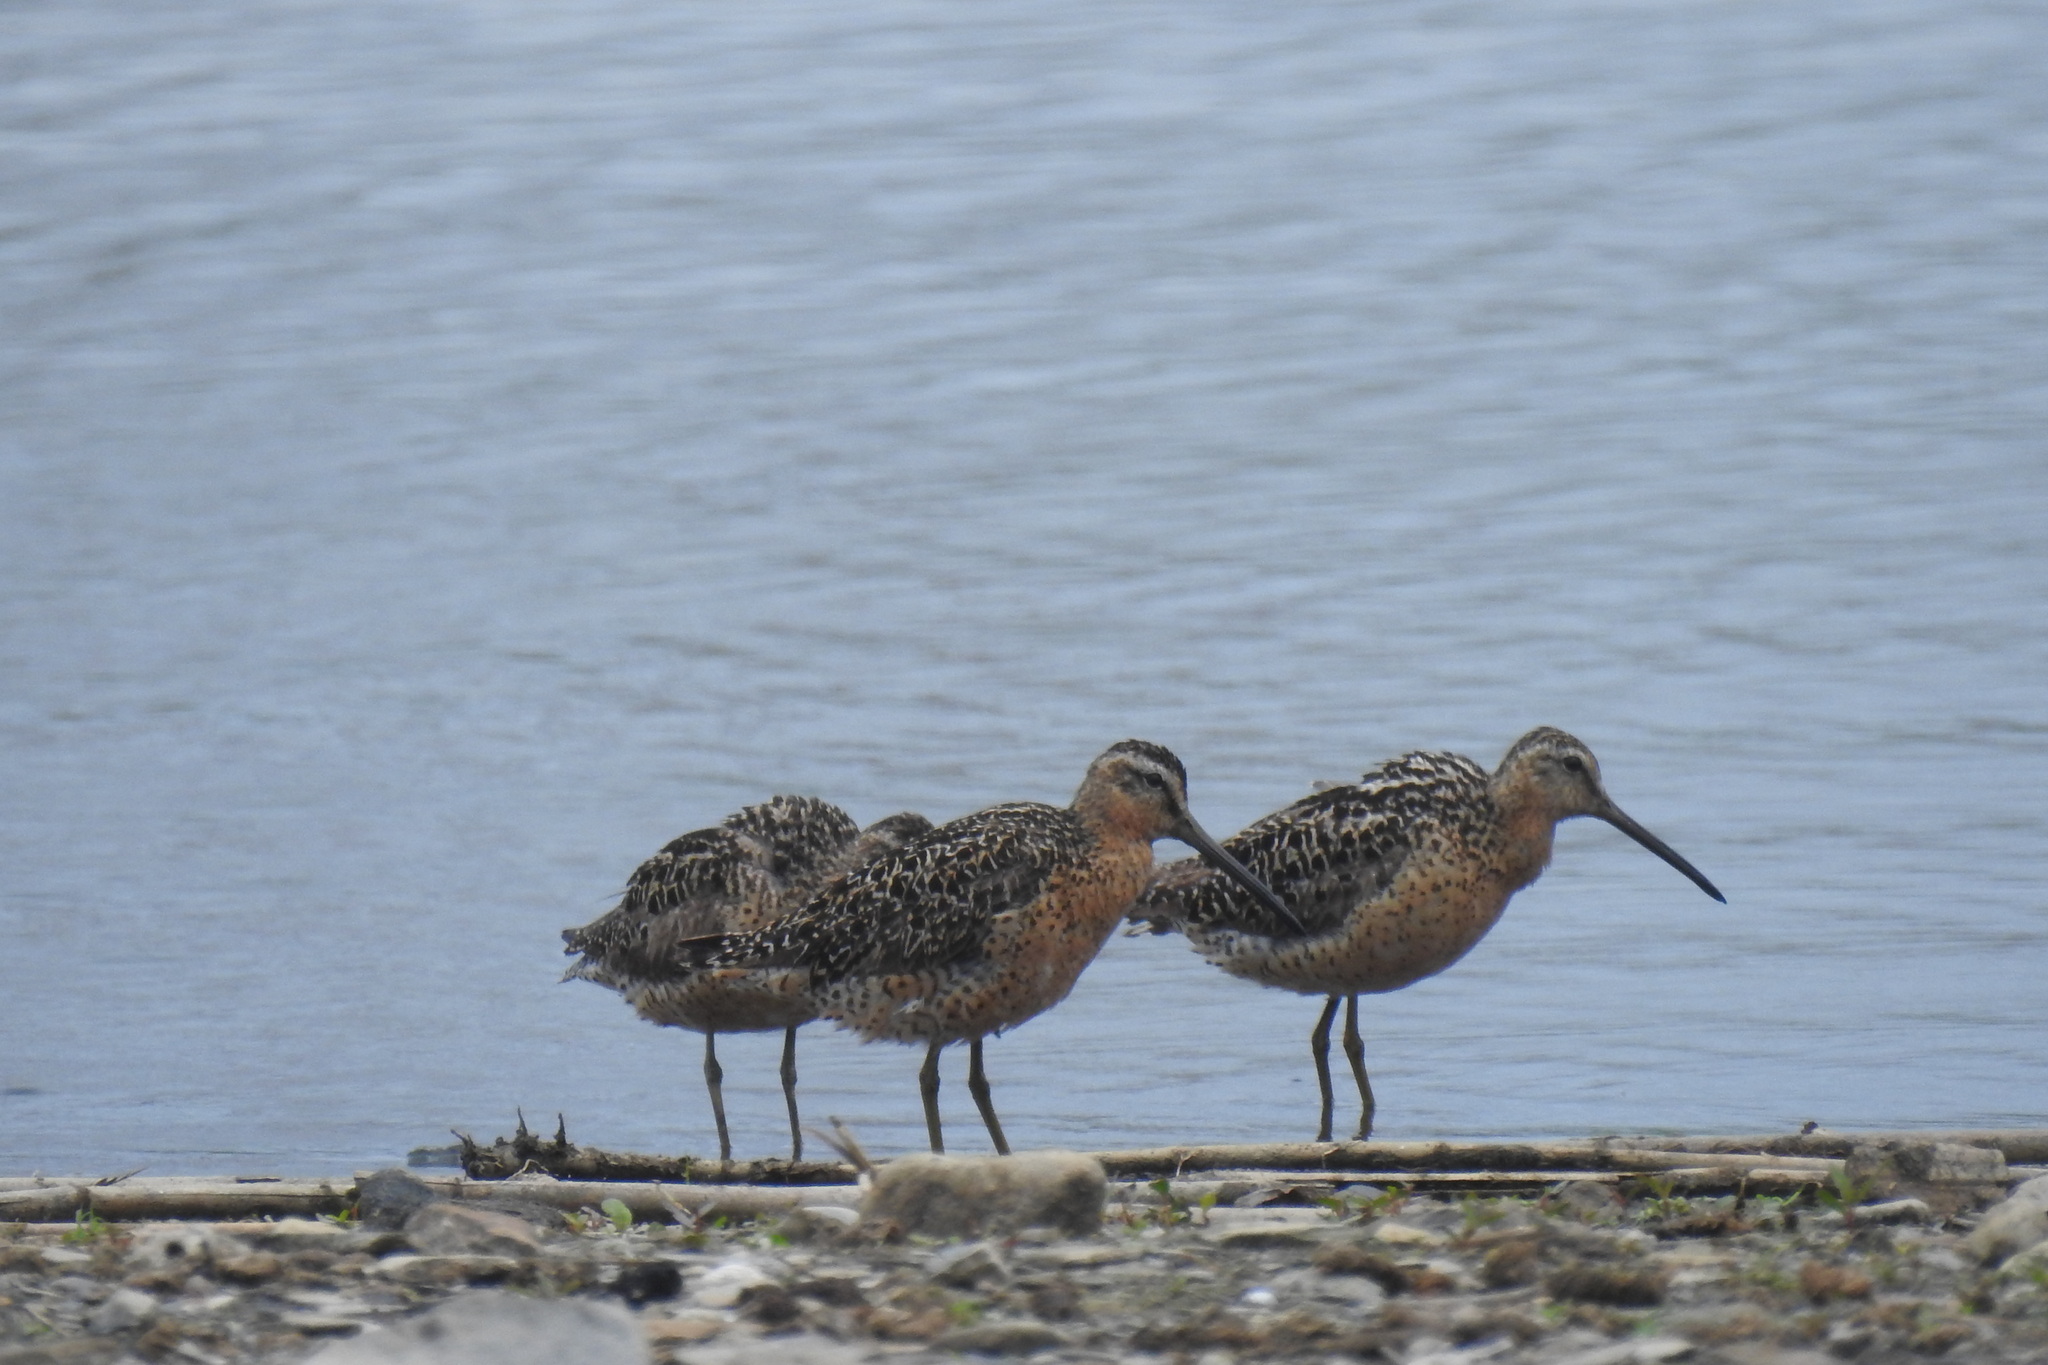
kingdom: Animalia
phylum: Chordata
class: Aves
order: Charadriiformes
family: Scolopacidae
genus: Limnodromus
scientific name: Limnodromus griseus
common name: Short-billed dowitcher
